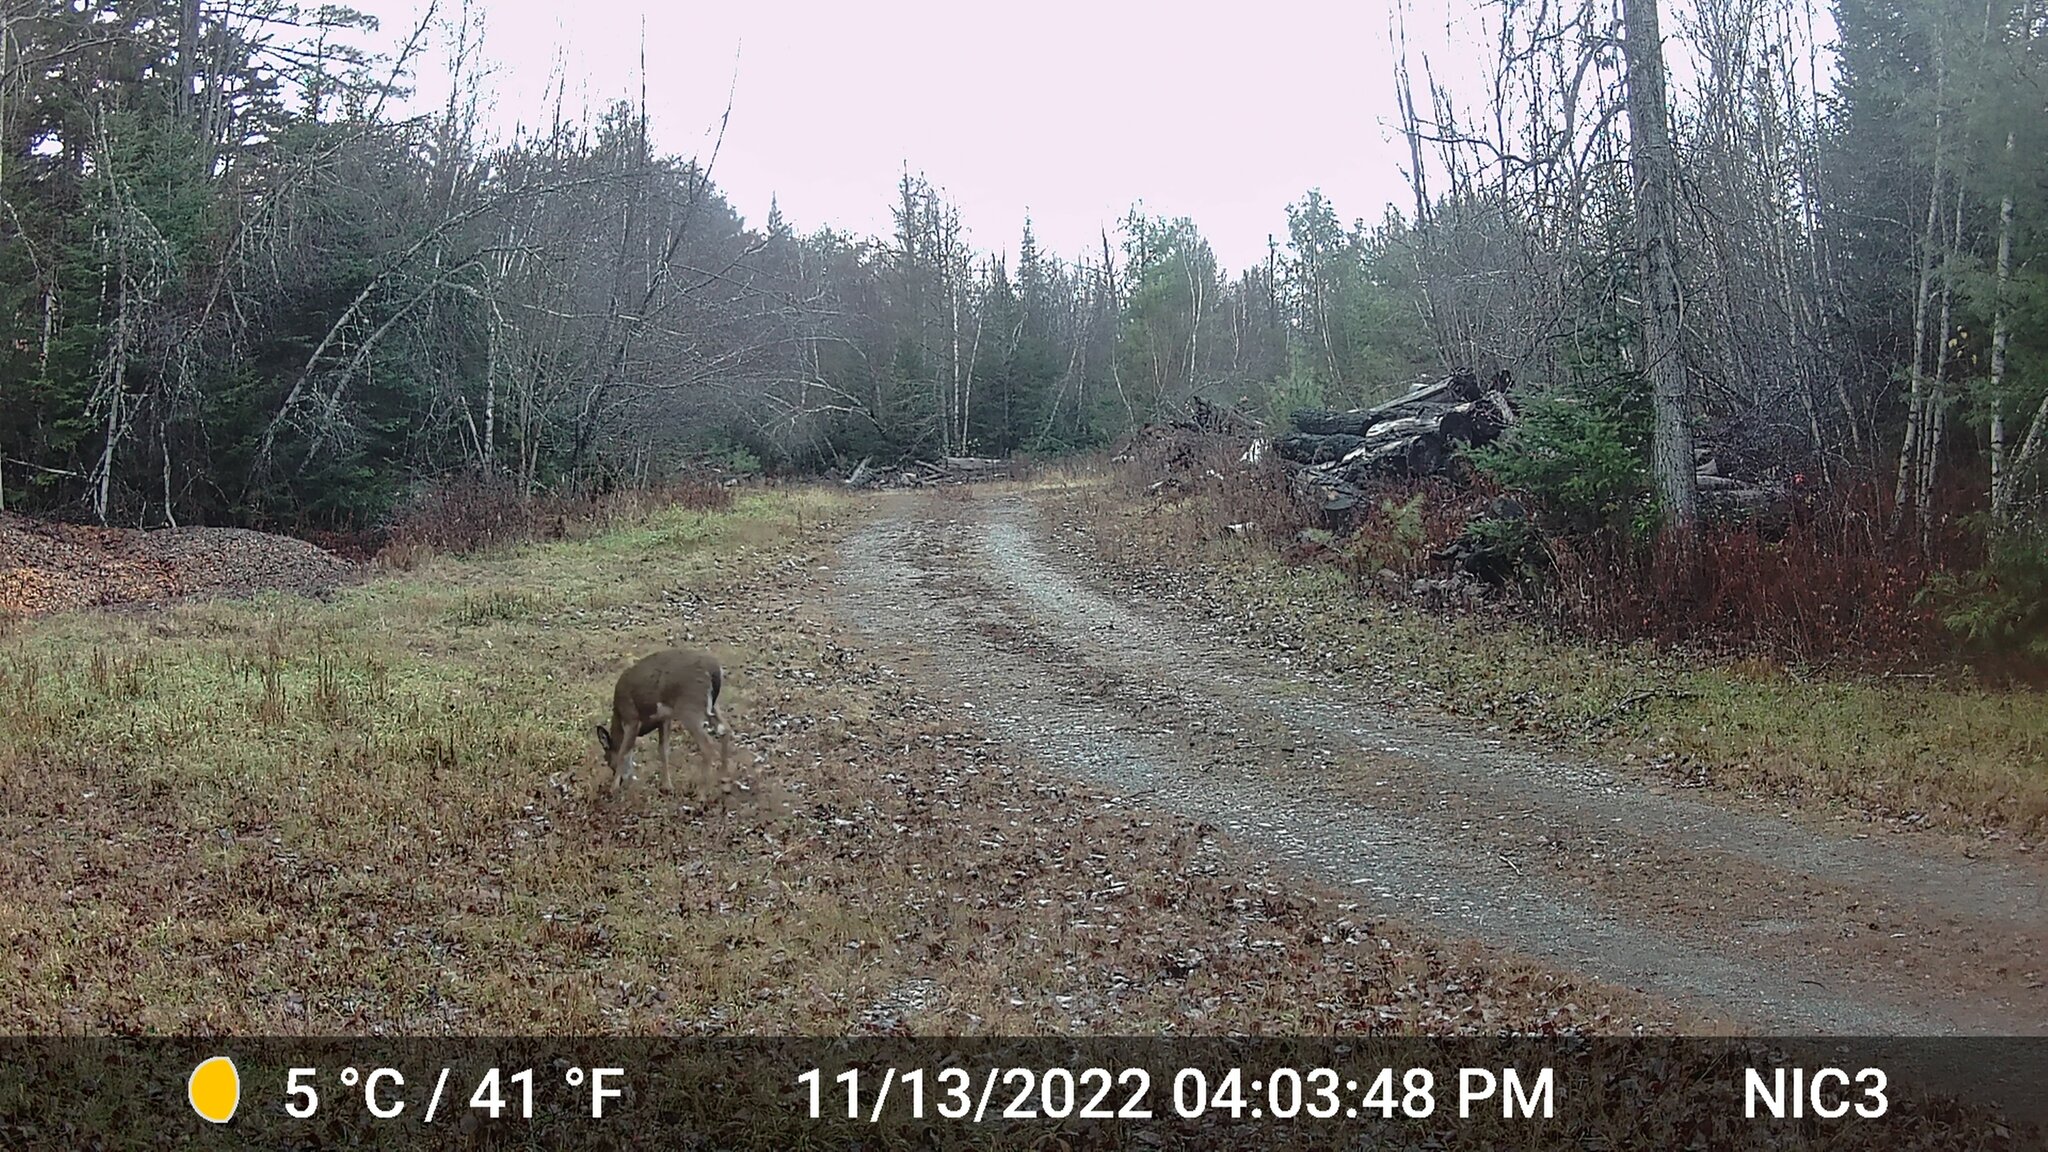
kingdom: Animalia
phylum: Chordata
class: Mammalia
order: Artiodactyla
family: Cervidae
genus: Odocoileus
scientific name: Odocoileus virginianus
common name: White-tailed deer
